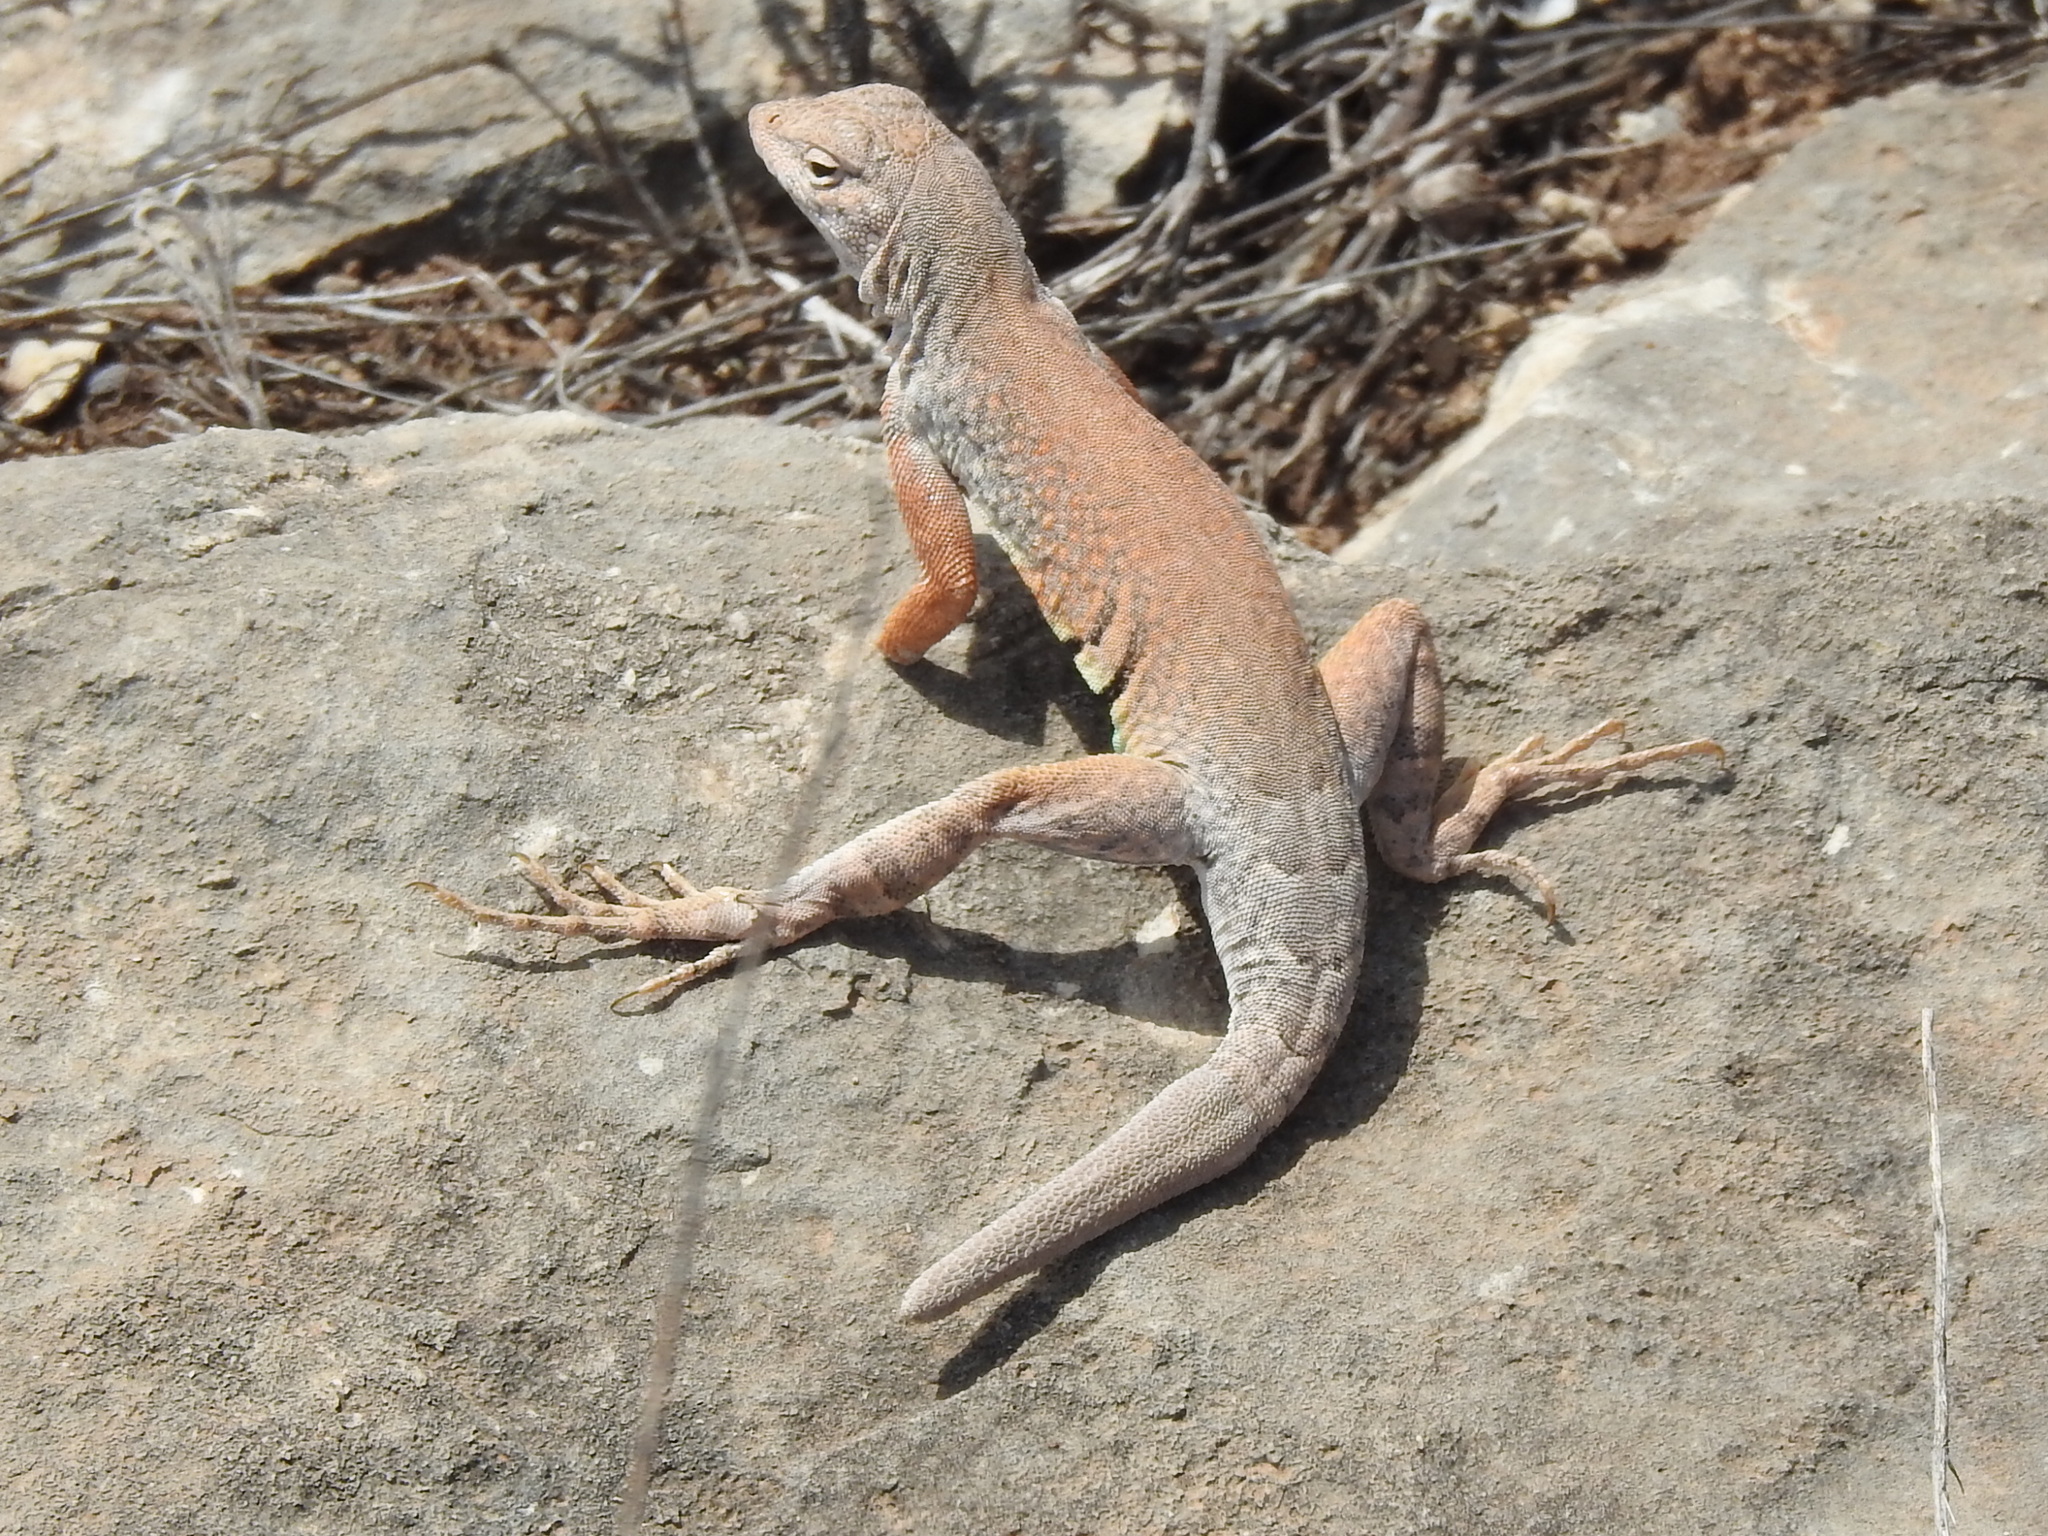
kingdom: Animalia
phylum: Chordata
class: Squamata
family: Phrynosomatidae
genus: Cophosaurus
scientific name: Cophosaurus texanus
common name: Greater earless lizard
